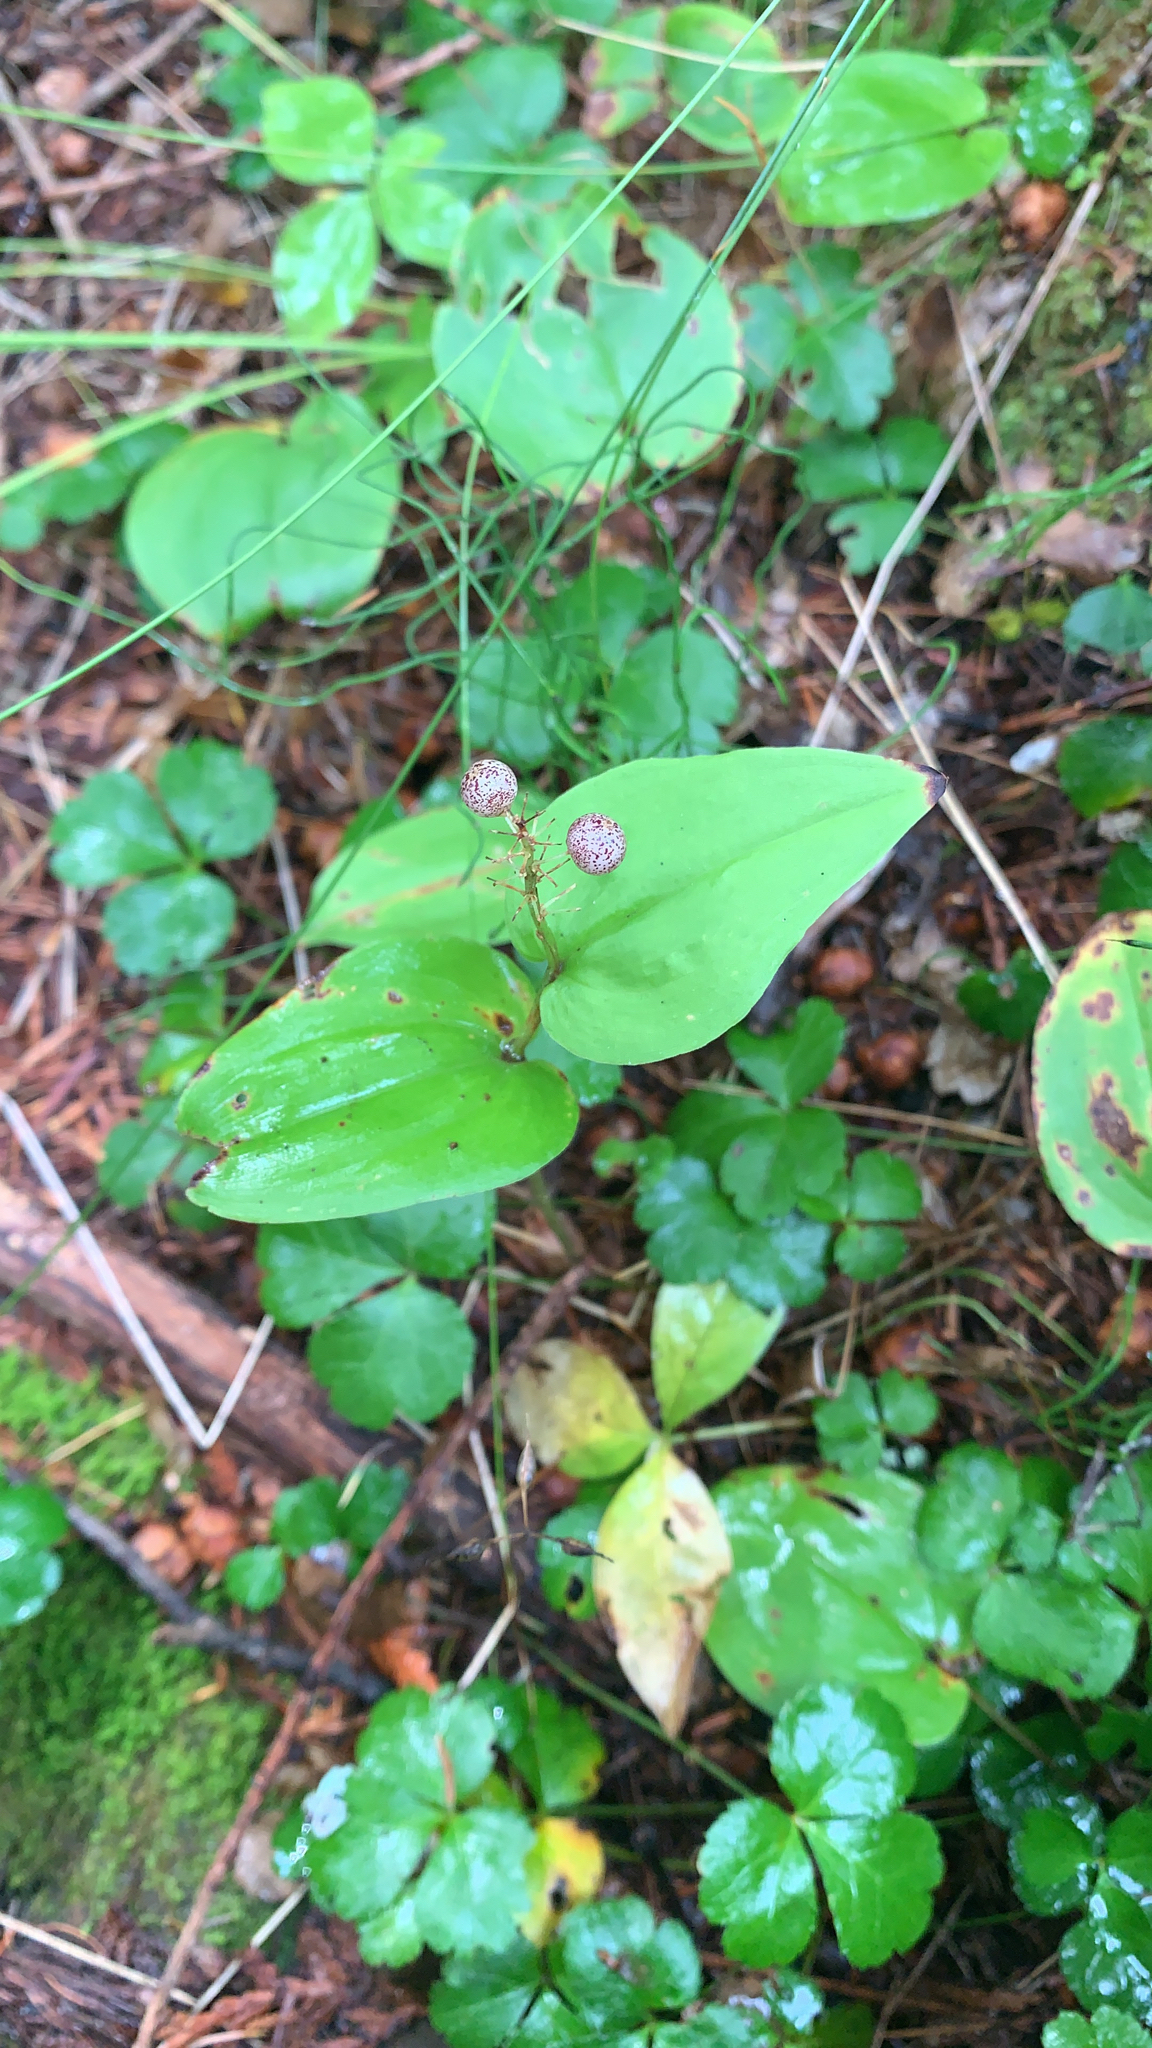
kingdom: Plantae
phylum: Tracheophyta
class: Liliopsida
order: Asparagales
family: Asparagaceae
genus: Maianthemum
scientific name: Maianthemum canadense
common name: False lily-of-the-valley
